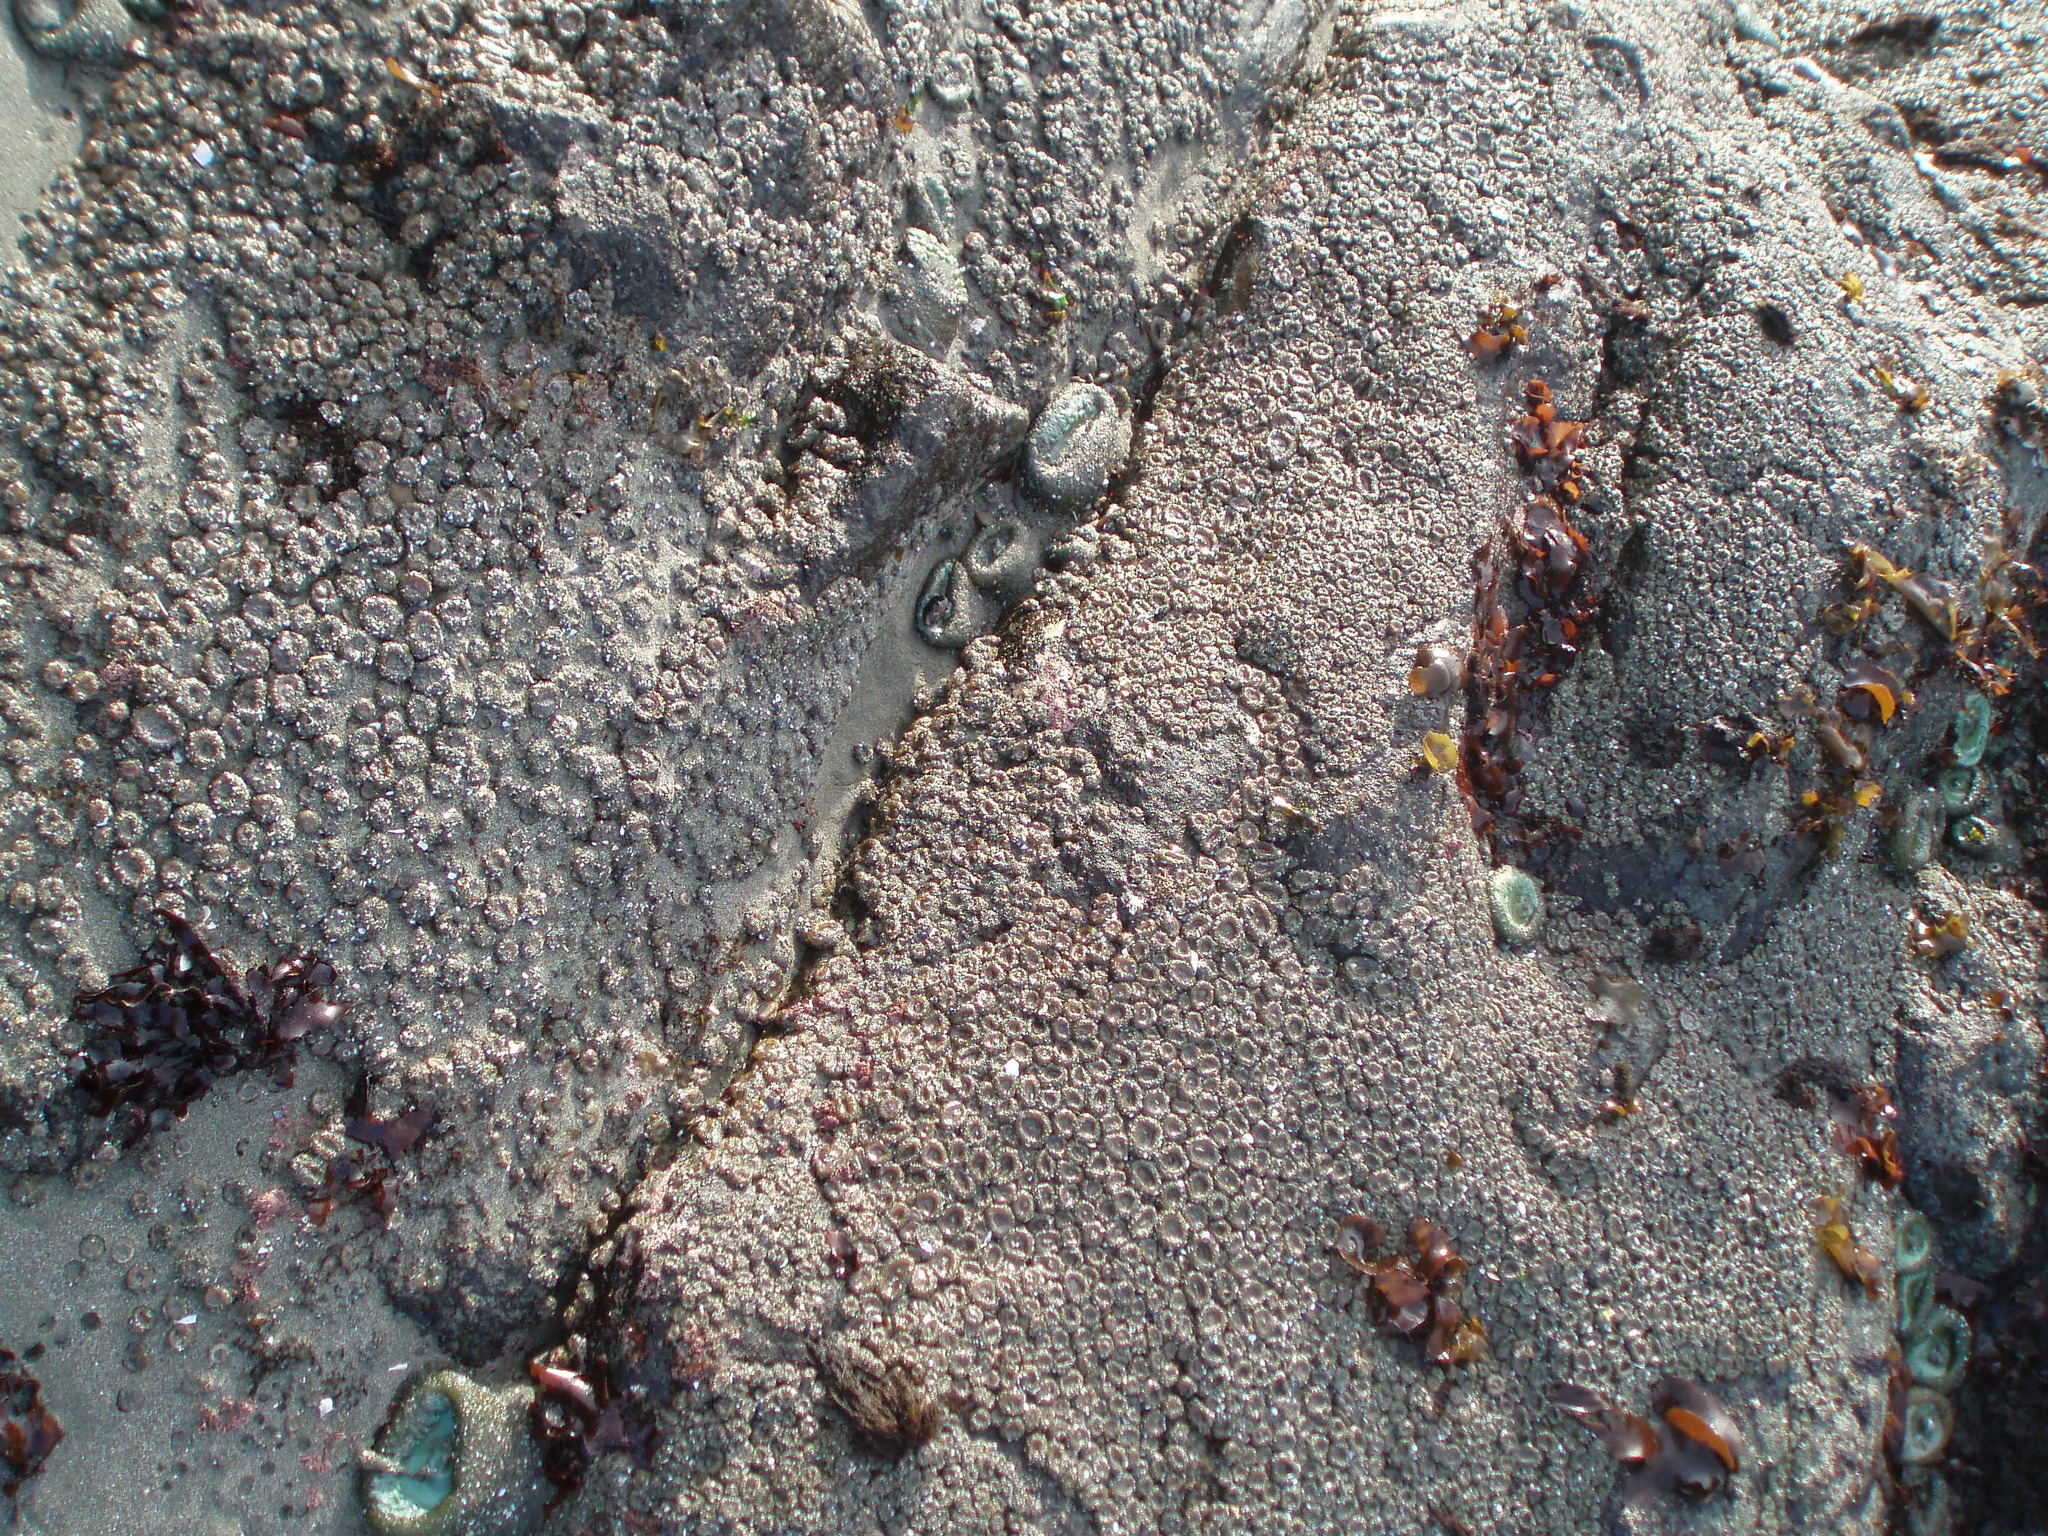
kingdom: Animalia
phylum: Cnidaria
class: Anthozoa
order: Actiniaria
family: Actiniidae
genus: Anthopleura
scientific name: Anthopleura elegantissima
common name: Clonal anemone
